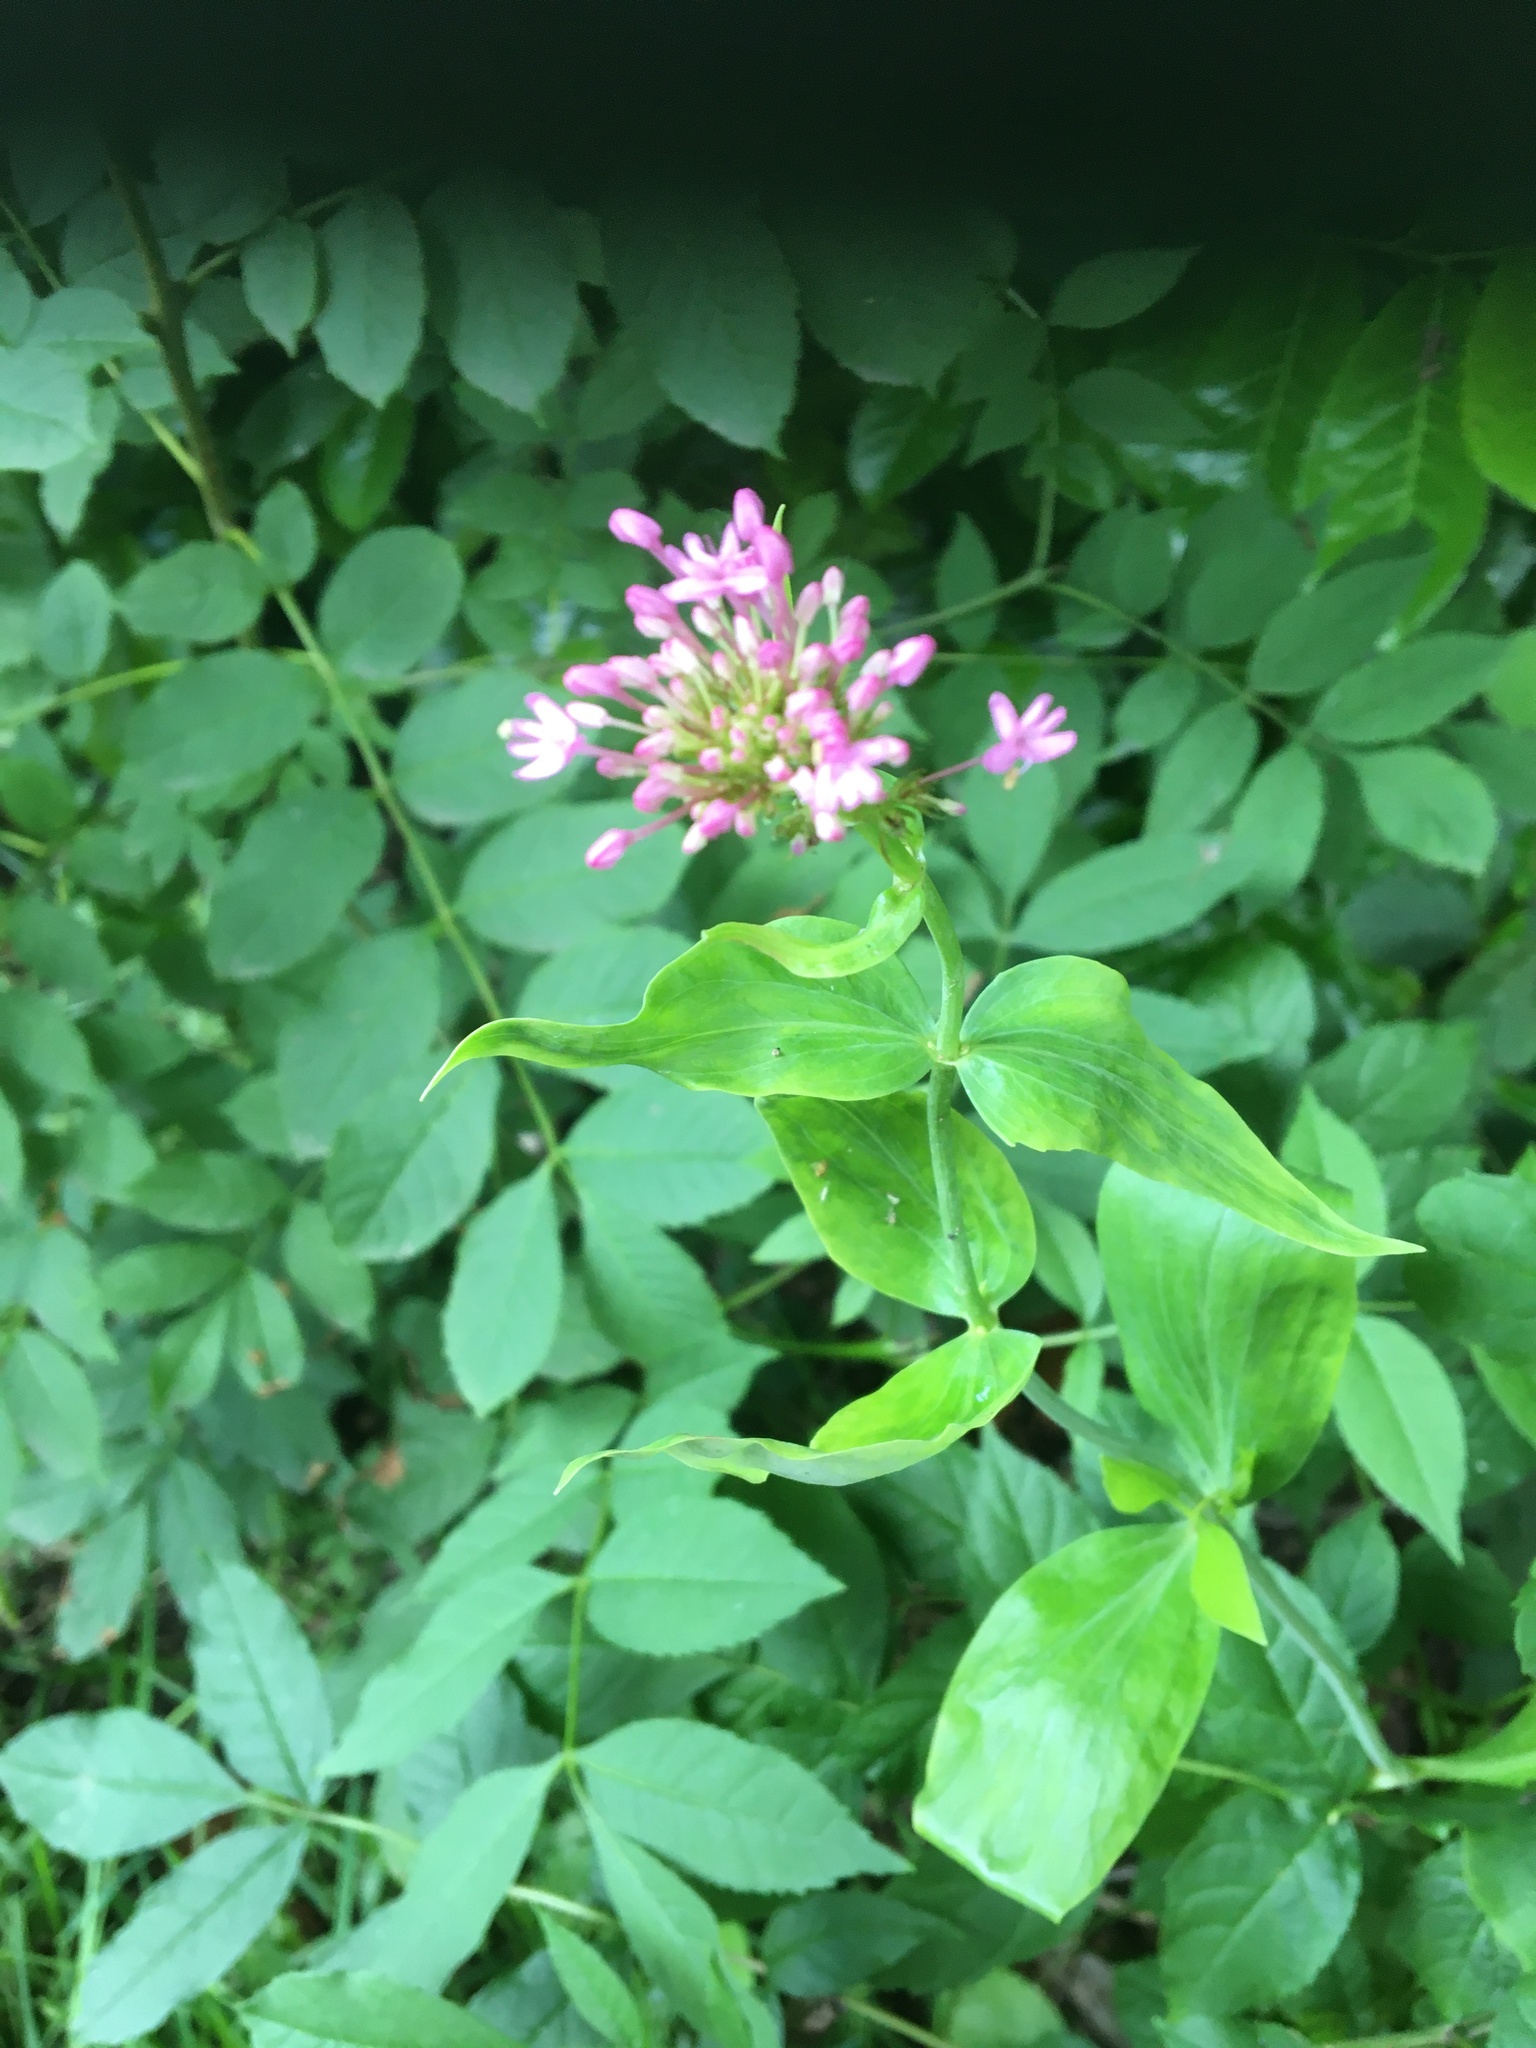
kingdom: Plantae
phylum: Tracheophyta
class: Magnoliopsida
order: Dipsacales
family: Caprifoliaceae
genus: Centranthus
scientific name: Centranthus ruber
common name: Red valerian
